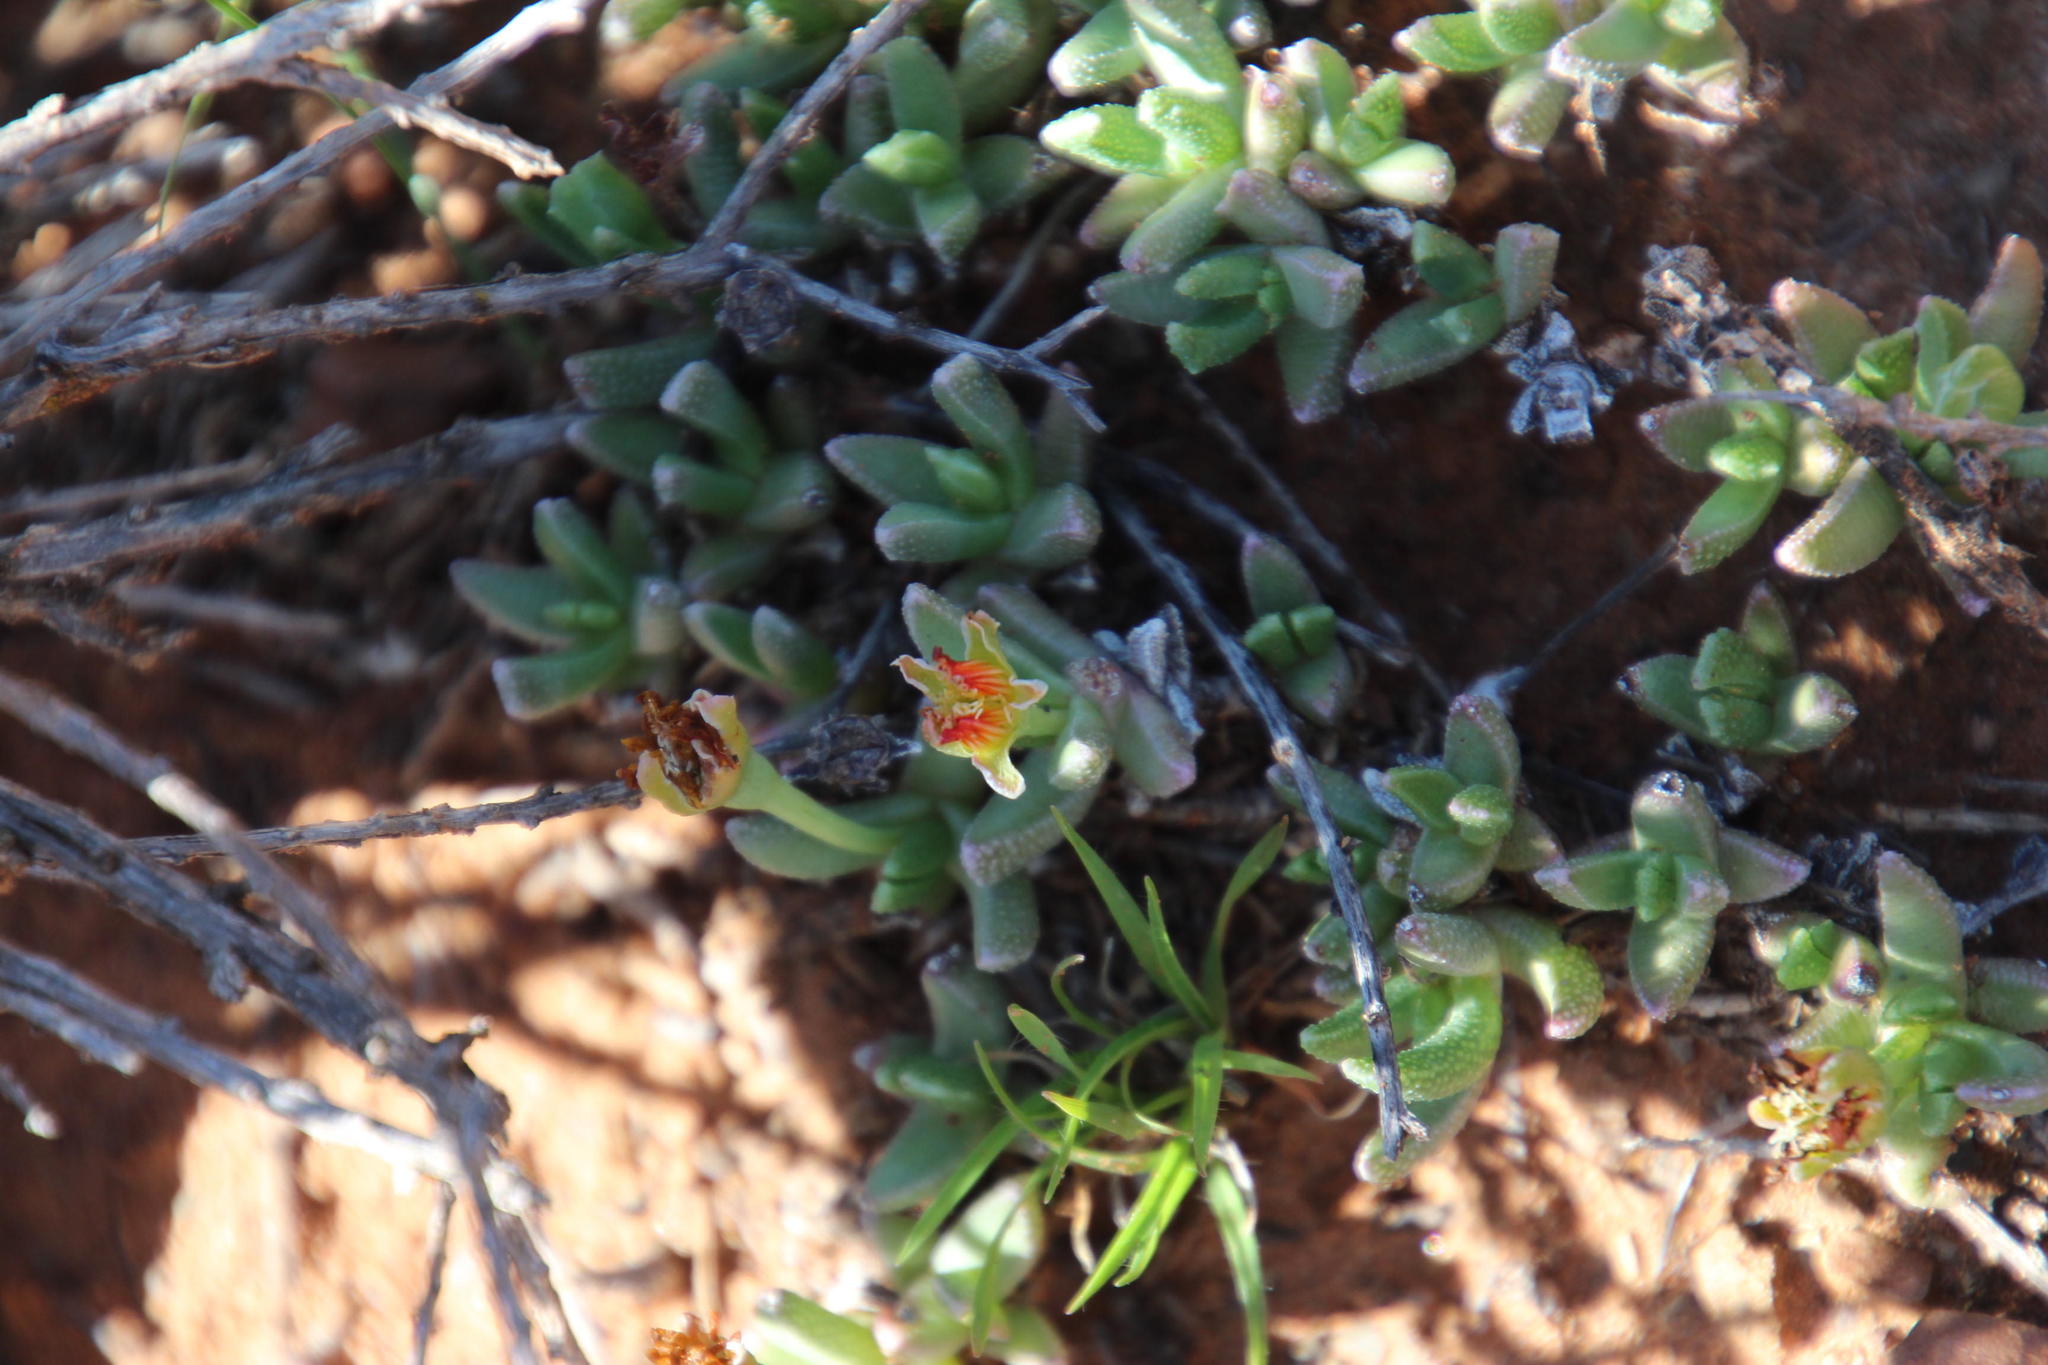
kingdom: Plantae
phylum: Tracheophyta
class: Magnoliopsida
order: Caryophyllales
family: Aizoaceae
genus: Dracophilus
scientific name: Dracophilus Chasmatophyllum musculinum
